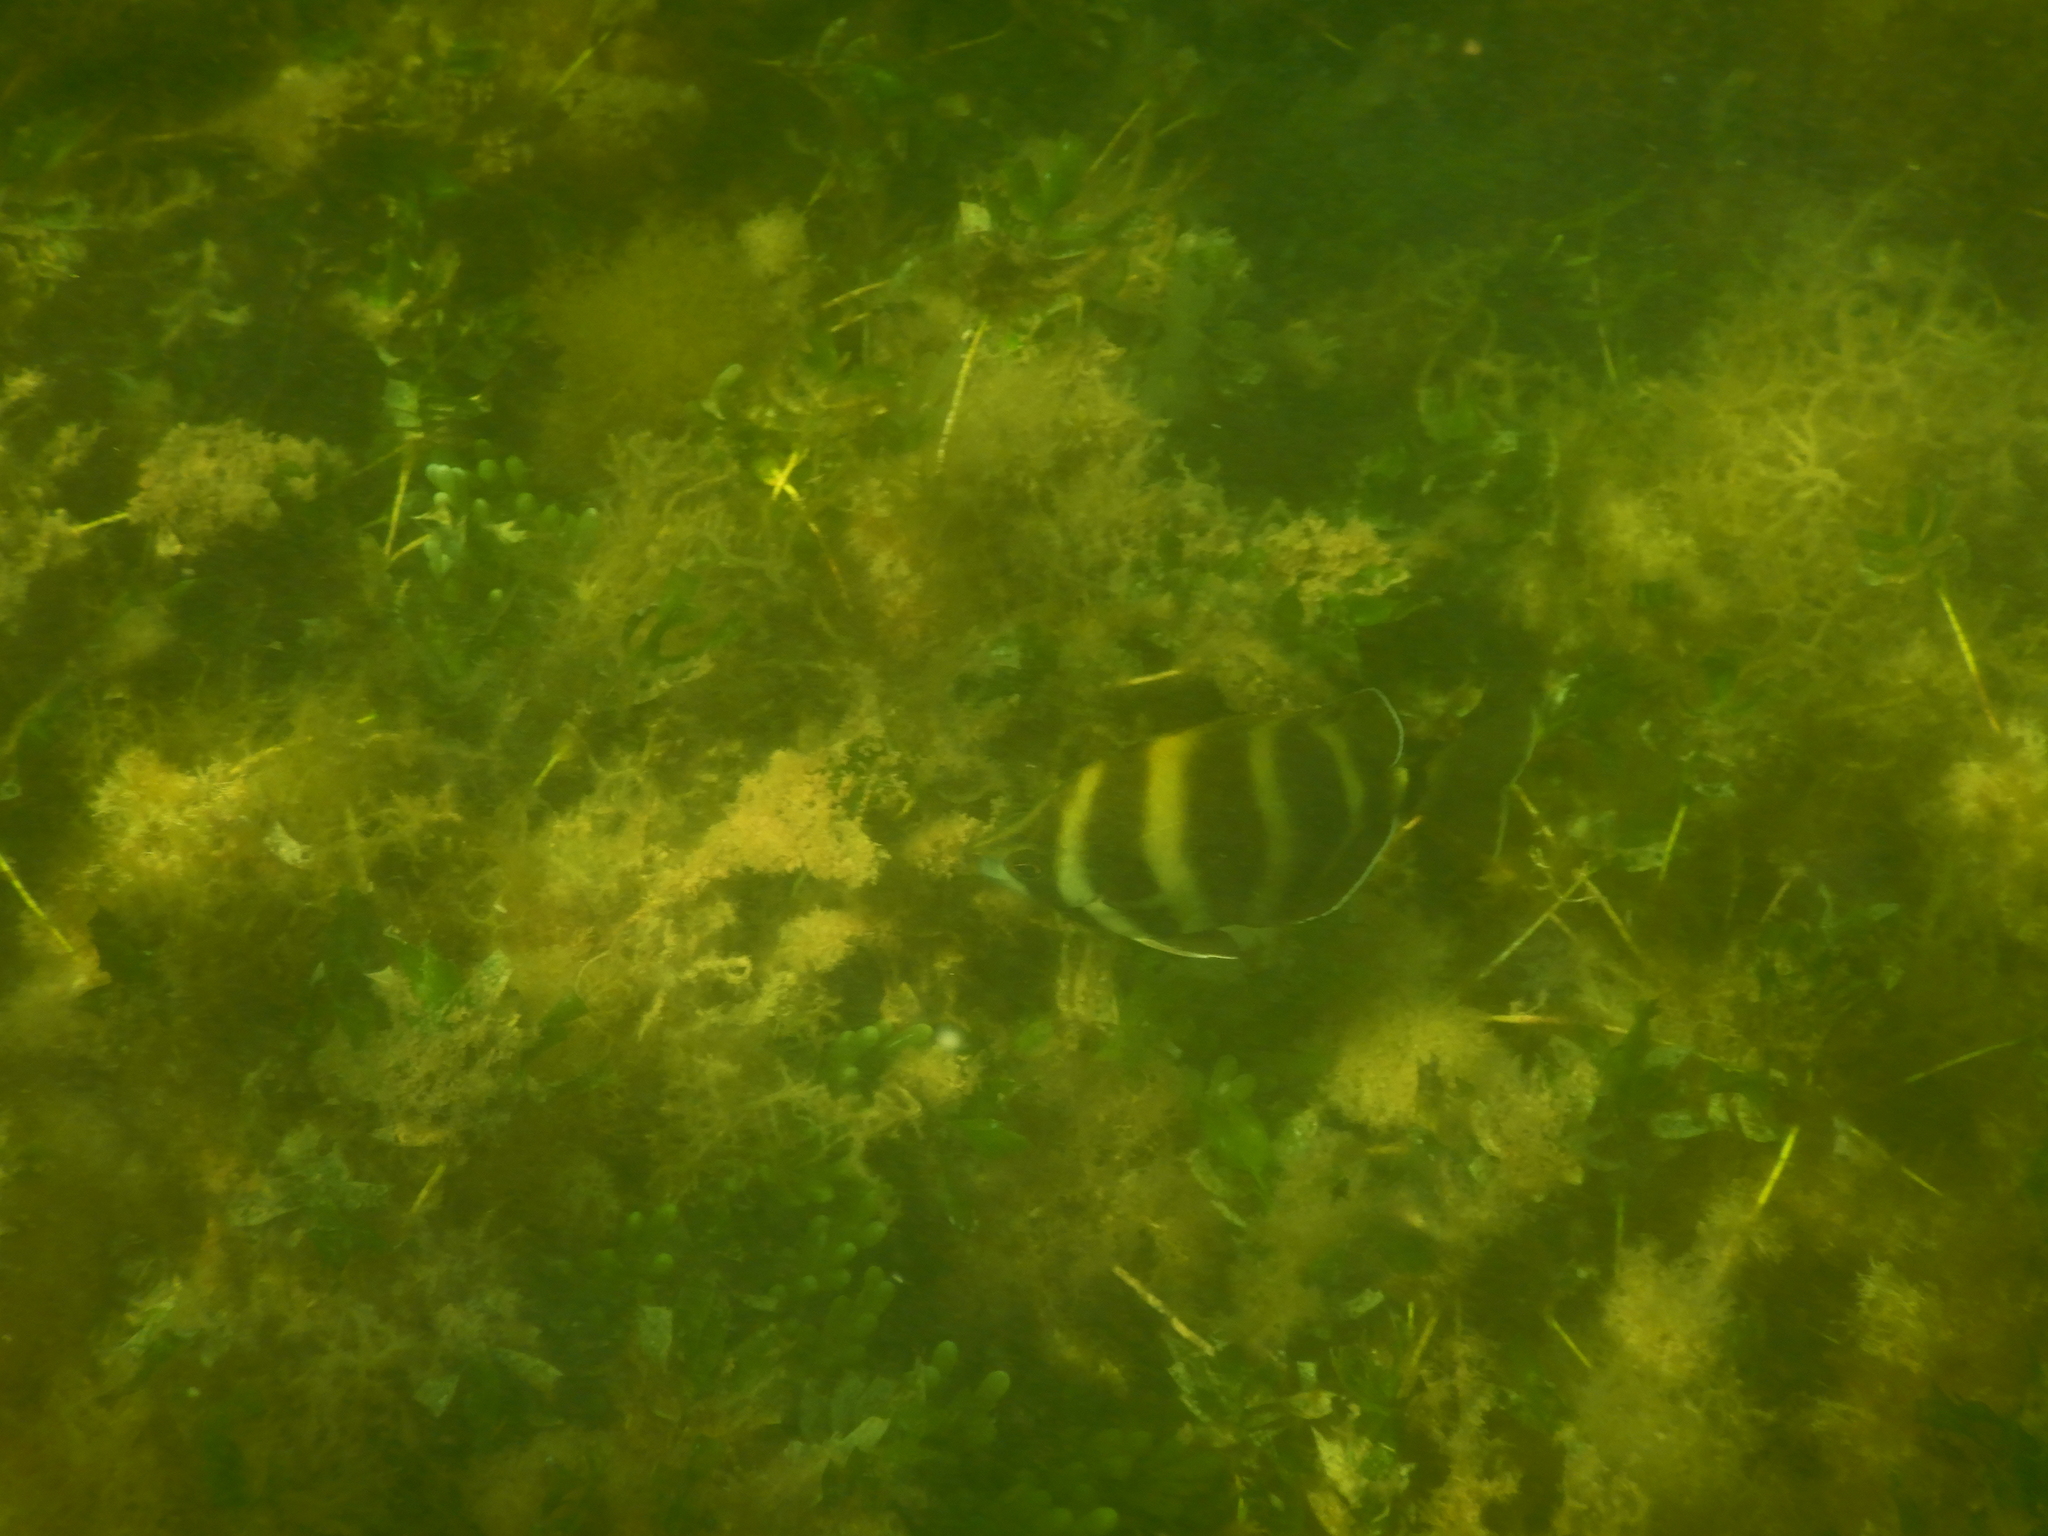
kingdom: Animalia
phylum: Chordata
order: Perciformes
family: Kyphosidae
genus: Tilodon
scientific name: Tilodon sexfasciatus
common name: Moonlighter
